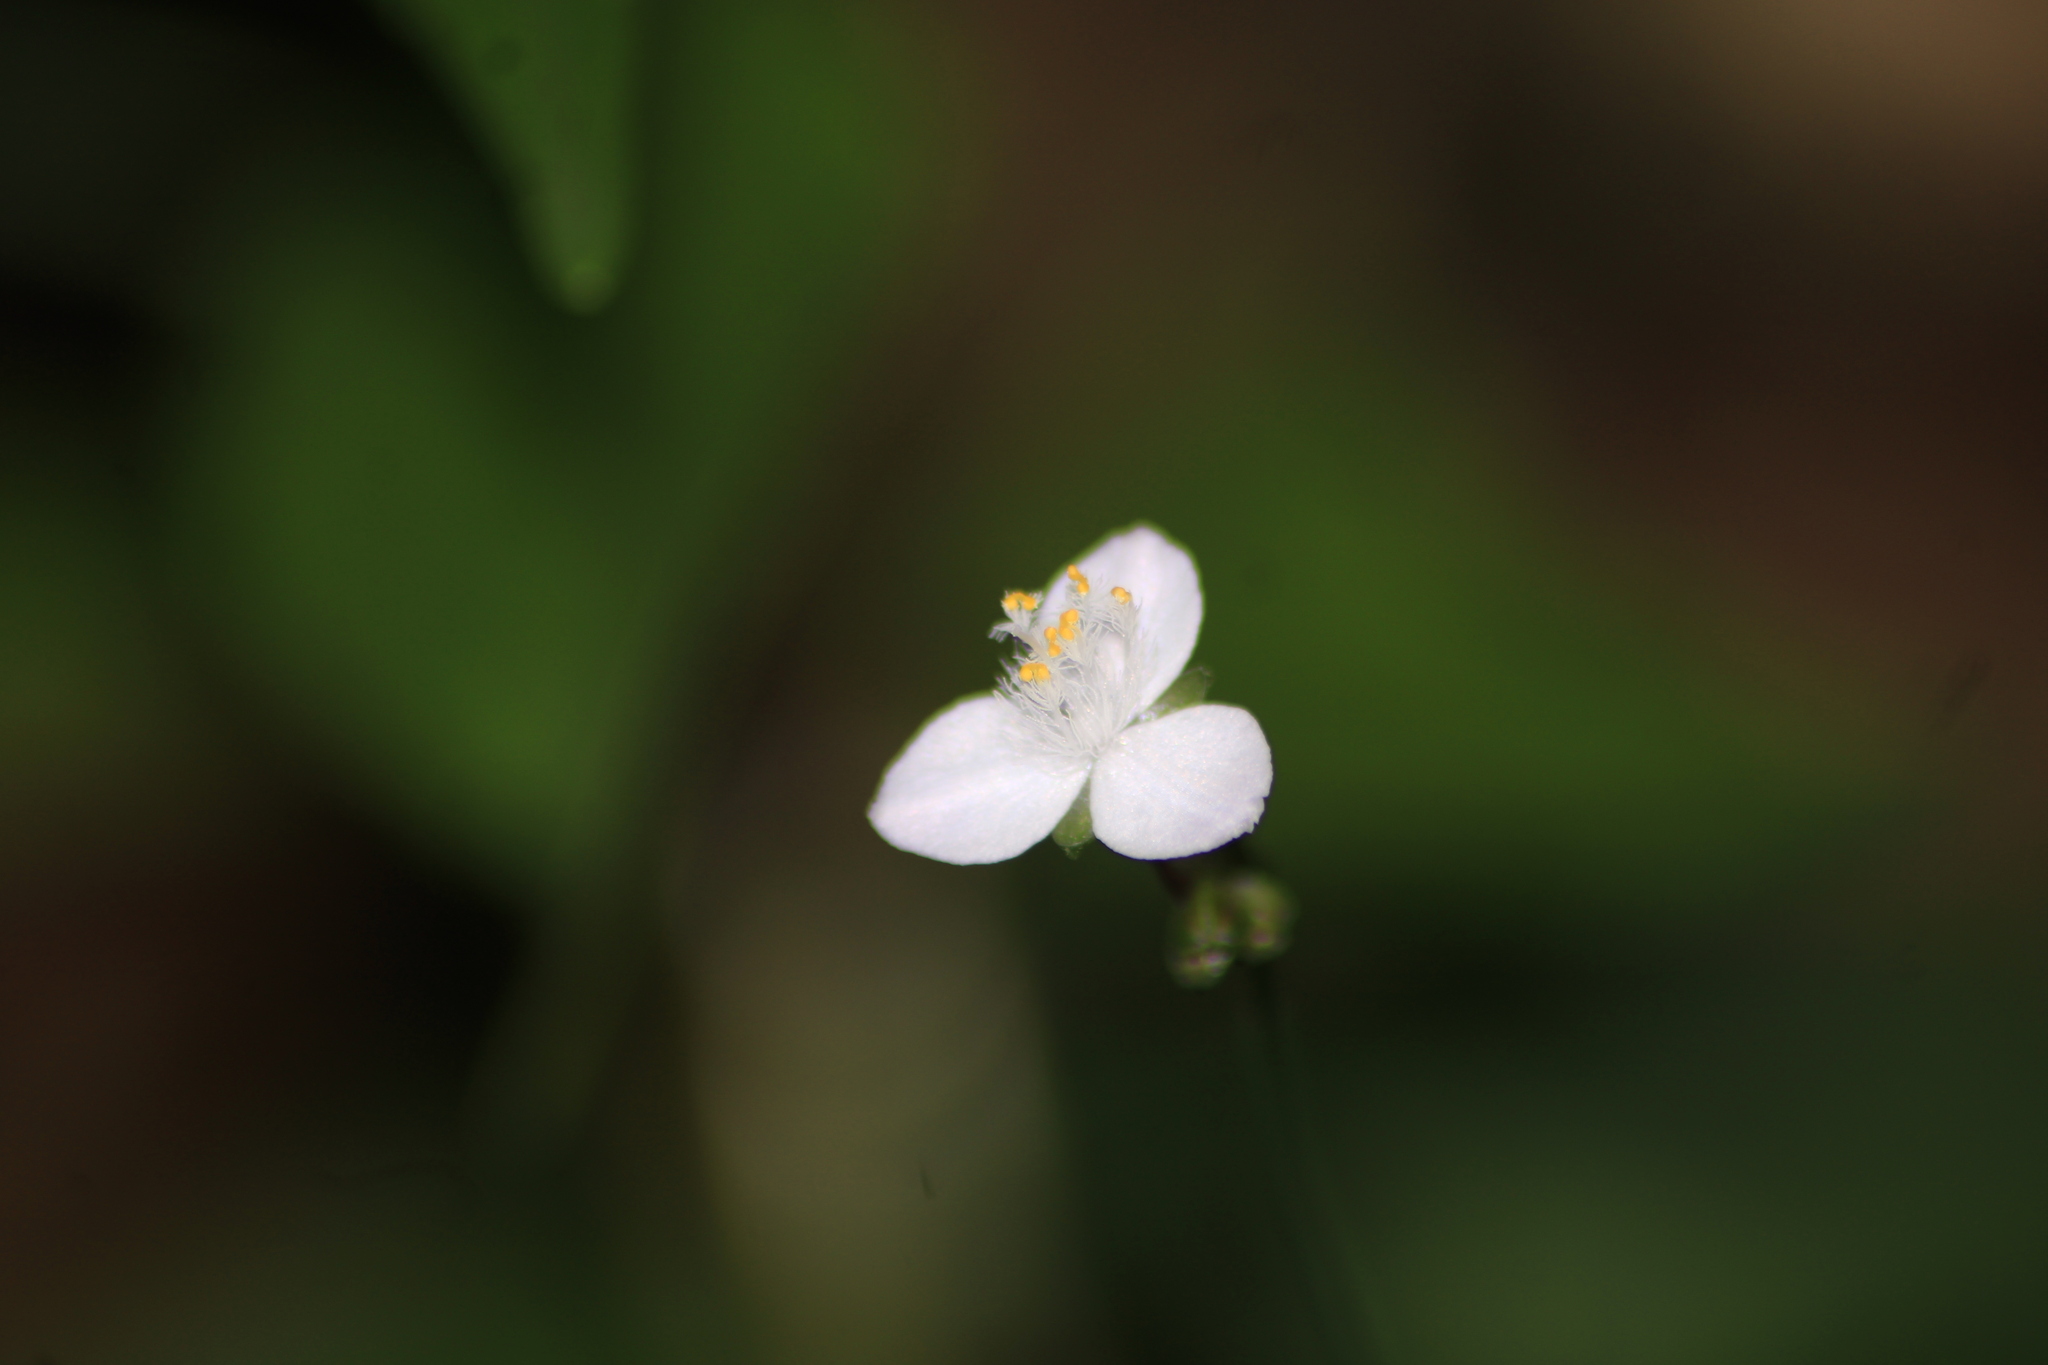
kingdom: Plantae
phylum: Tracheophyta
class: Liliopsida
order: Commelinales
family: Commelinaceae
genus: Gibasis
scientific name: Gibasis pellucida
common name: Dotted bridalveil
